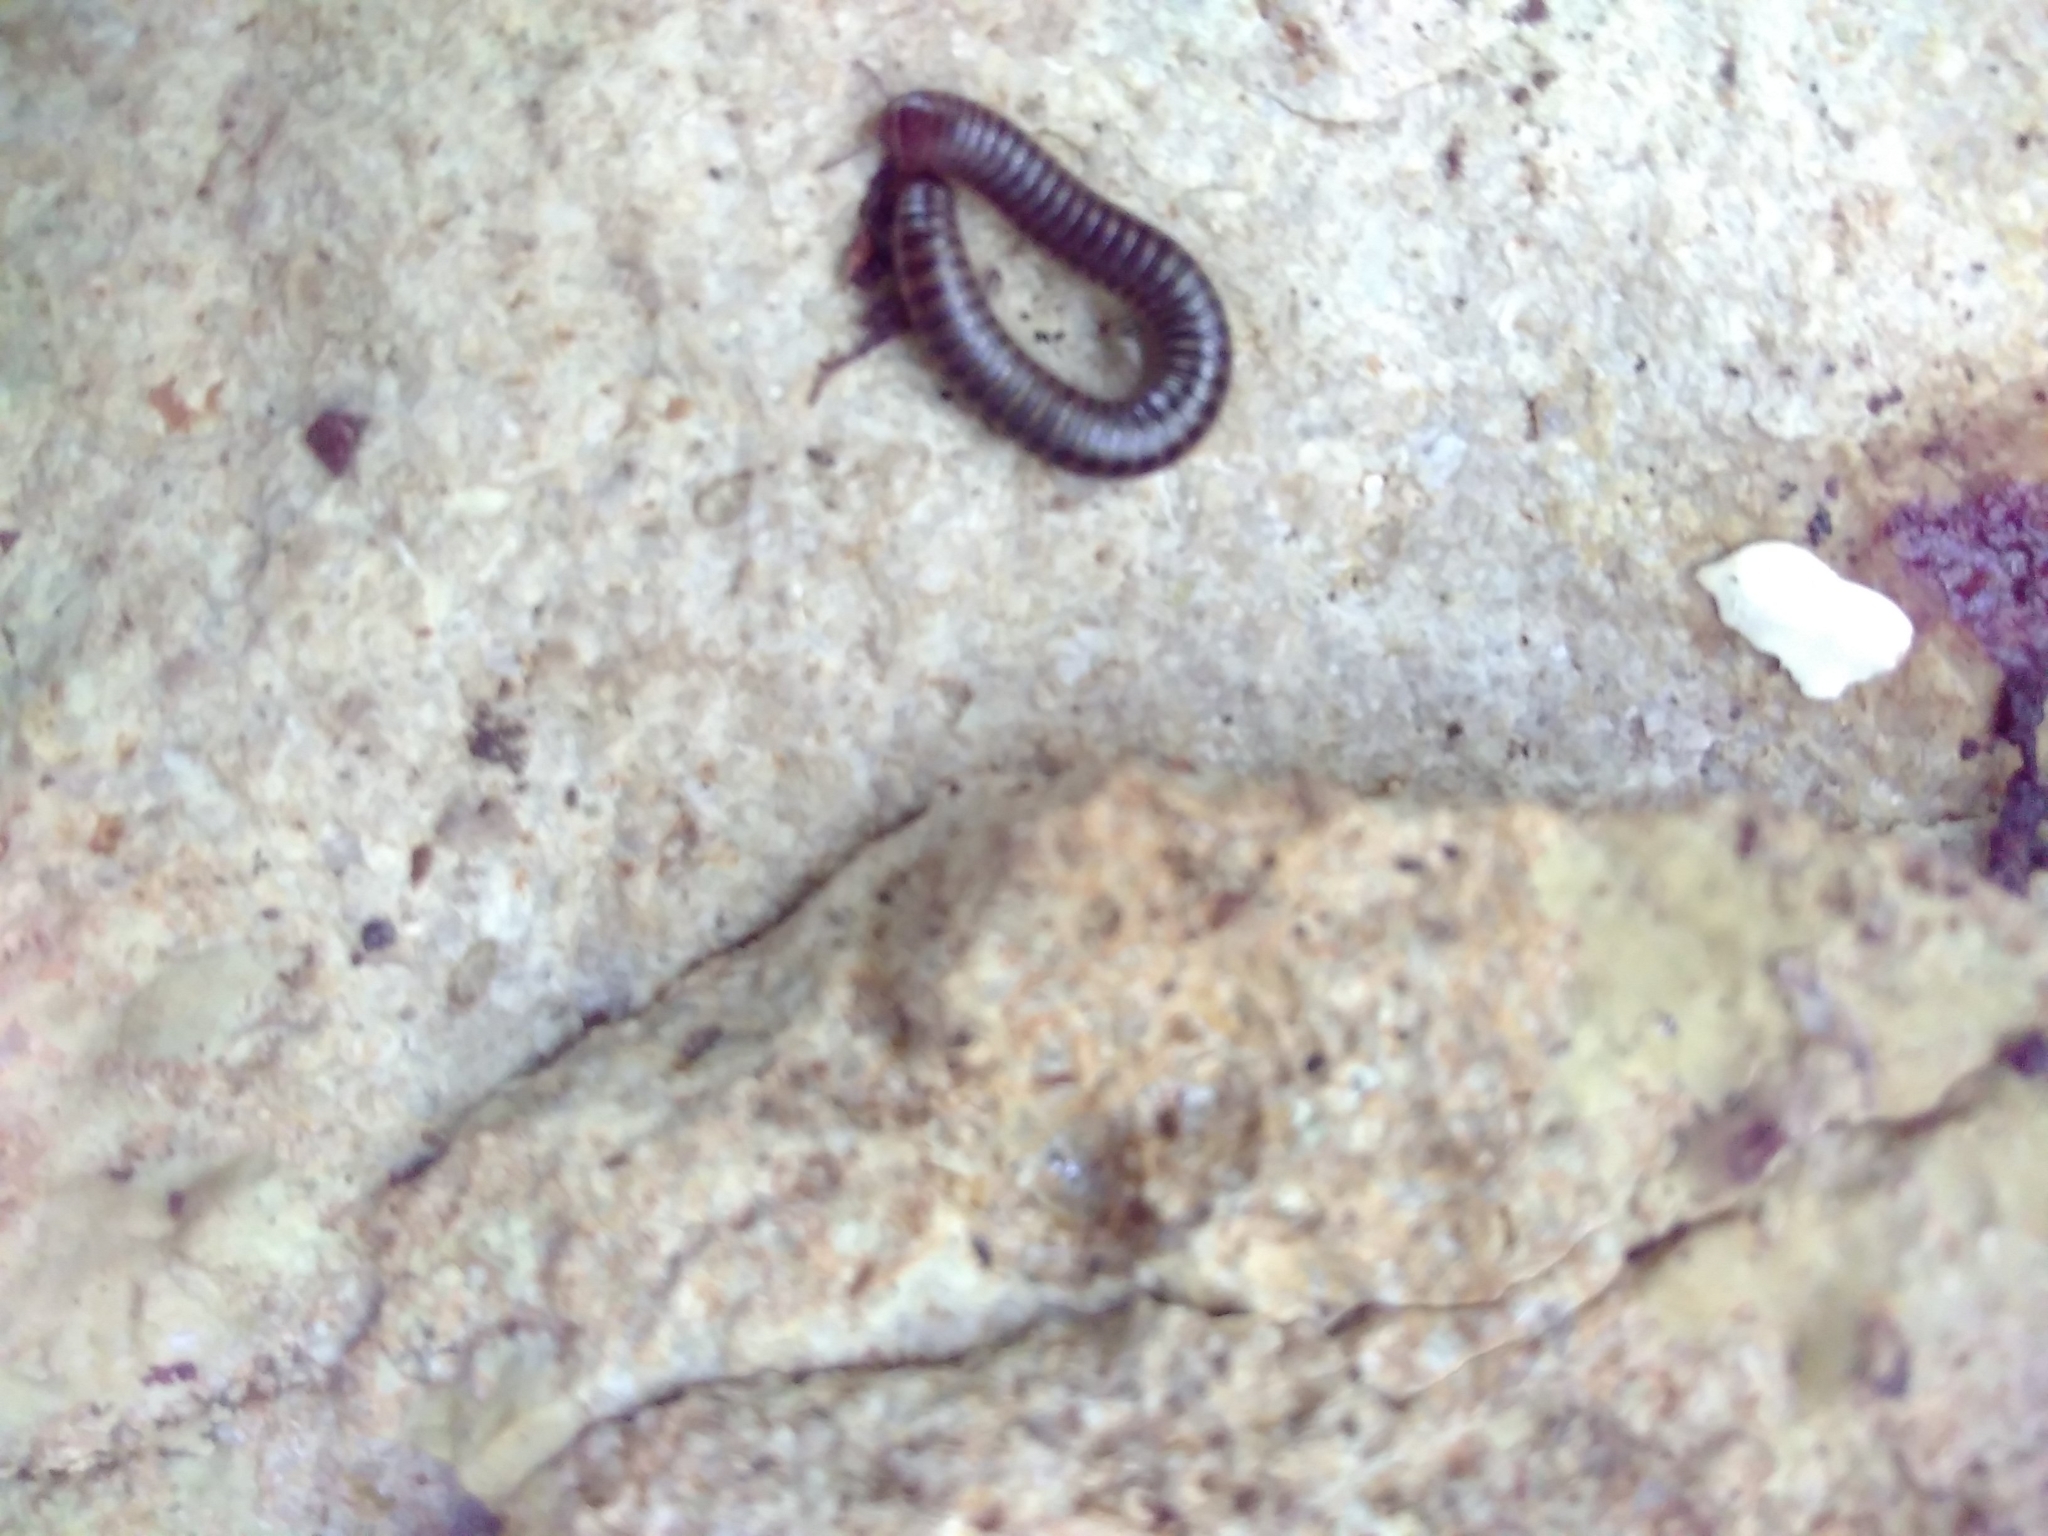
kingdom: Animalia
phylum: Arthropoda
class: Diplopoda
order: Julida
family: Julidae
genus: Cylindroiulus
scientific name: Cylindroiulus caeruleocinctus
